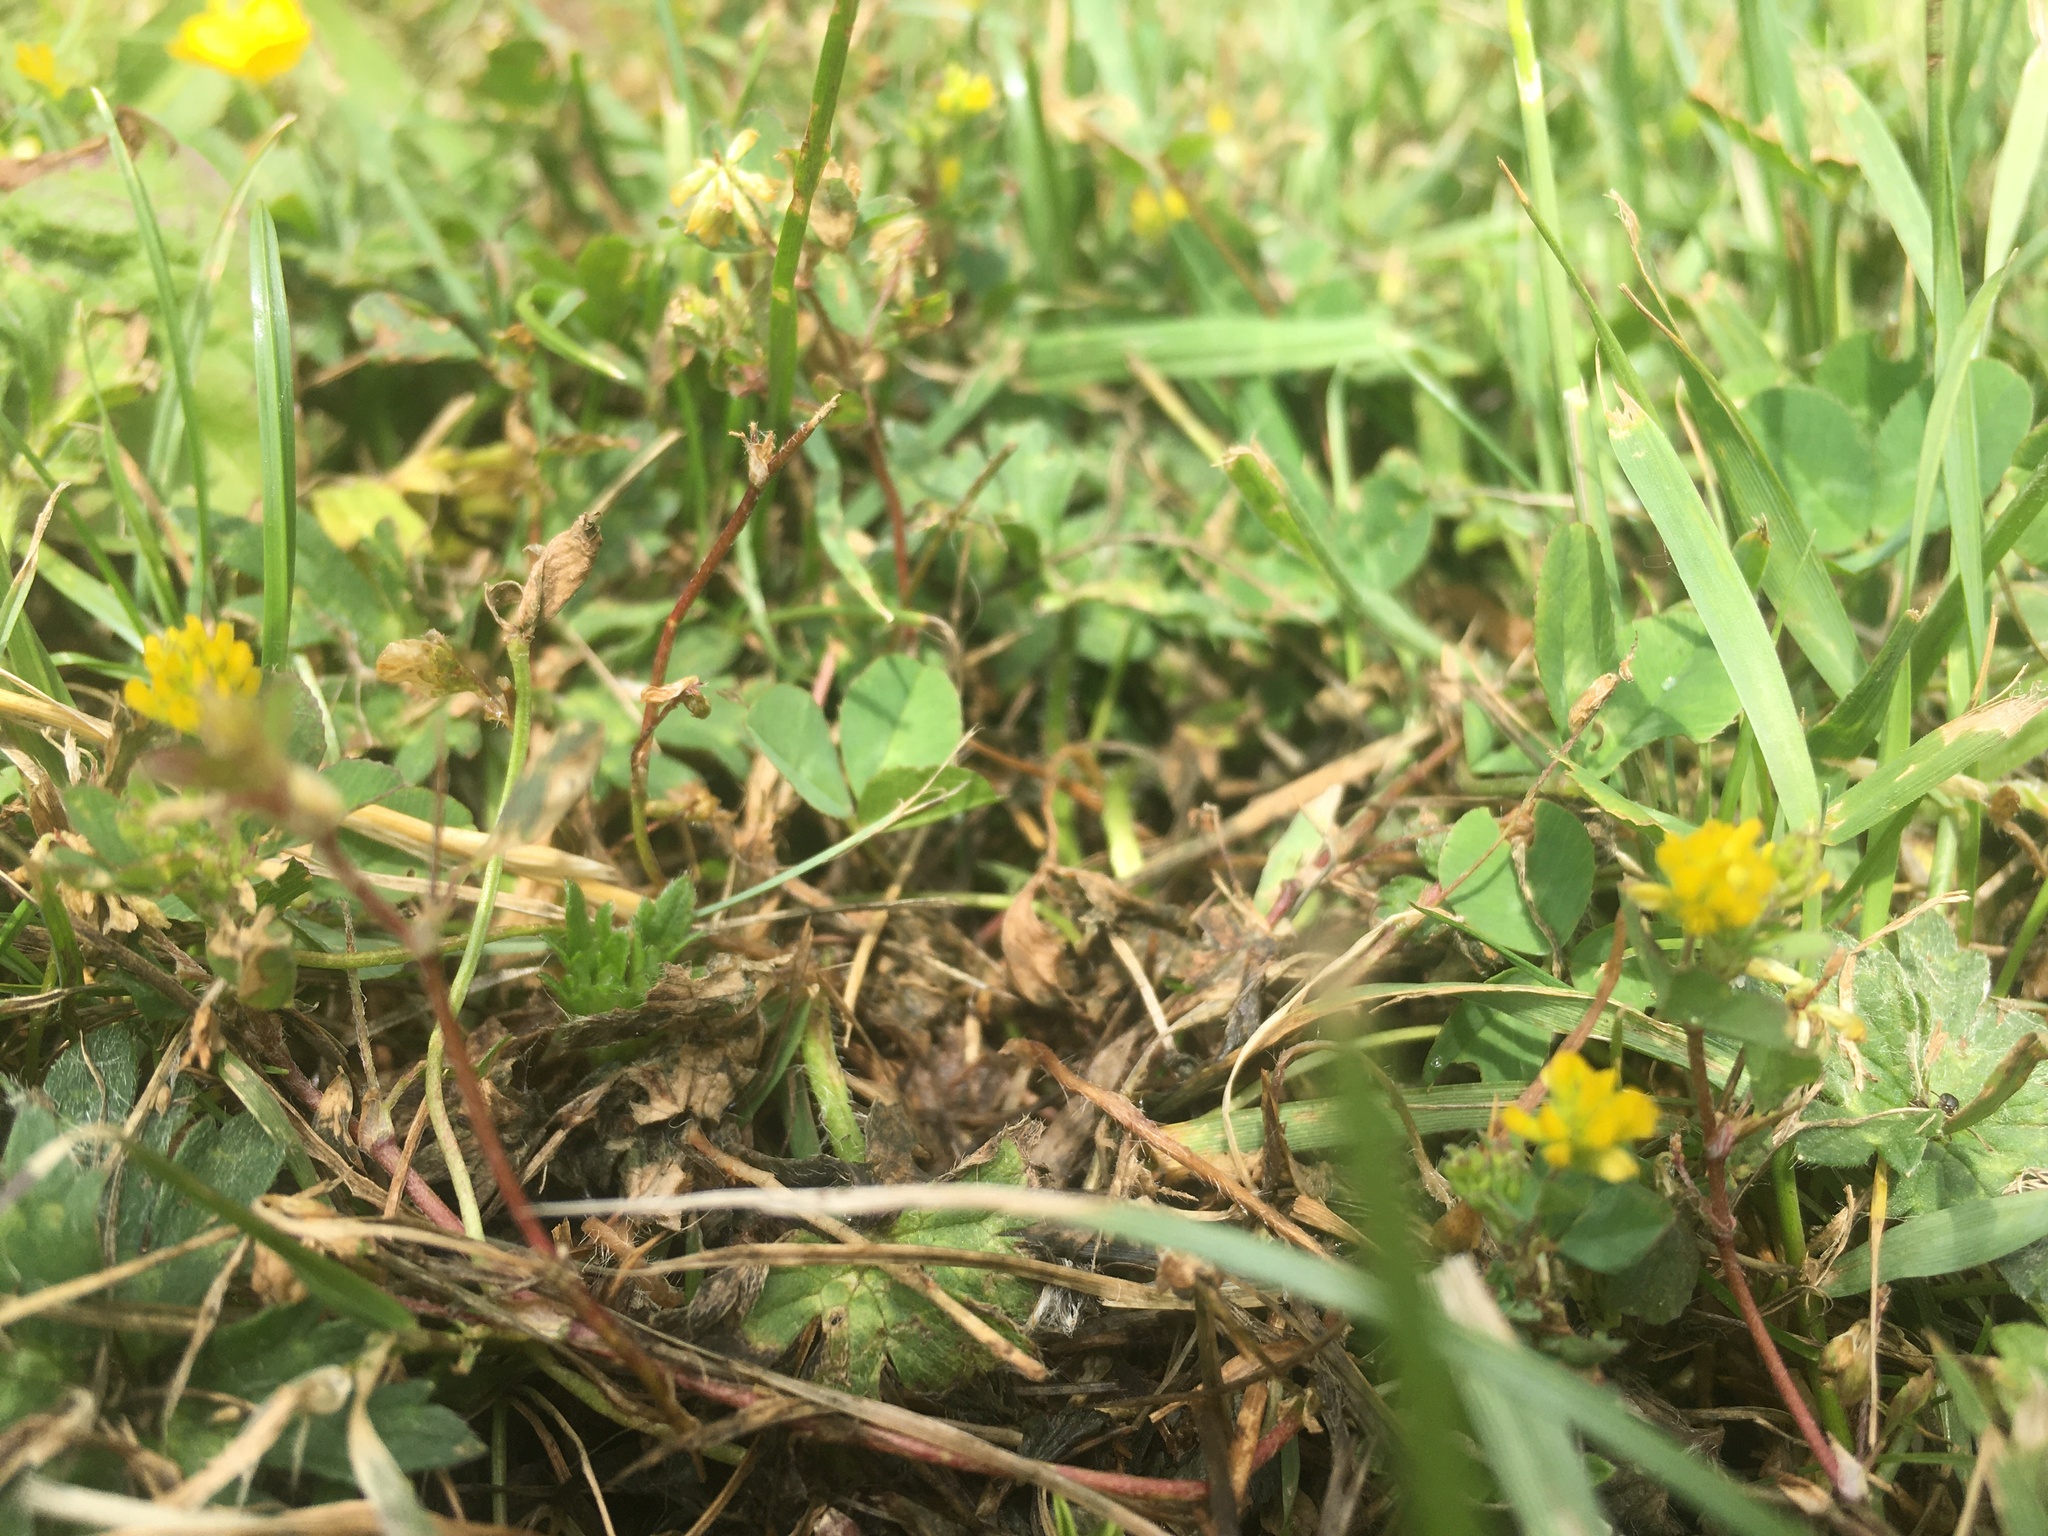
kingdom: Plantae
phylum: Tracheophyta
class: Magnoliopsida
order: Fabales
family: Fabaceae
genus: Trifolium
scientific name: Trifolium dubium
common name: Suckling clover
